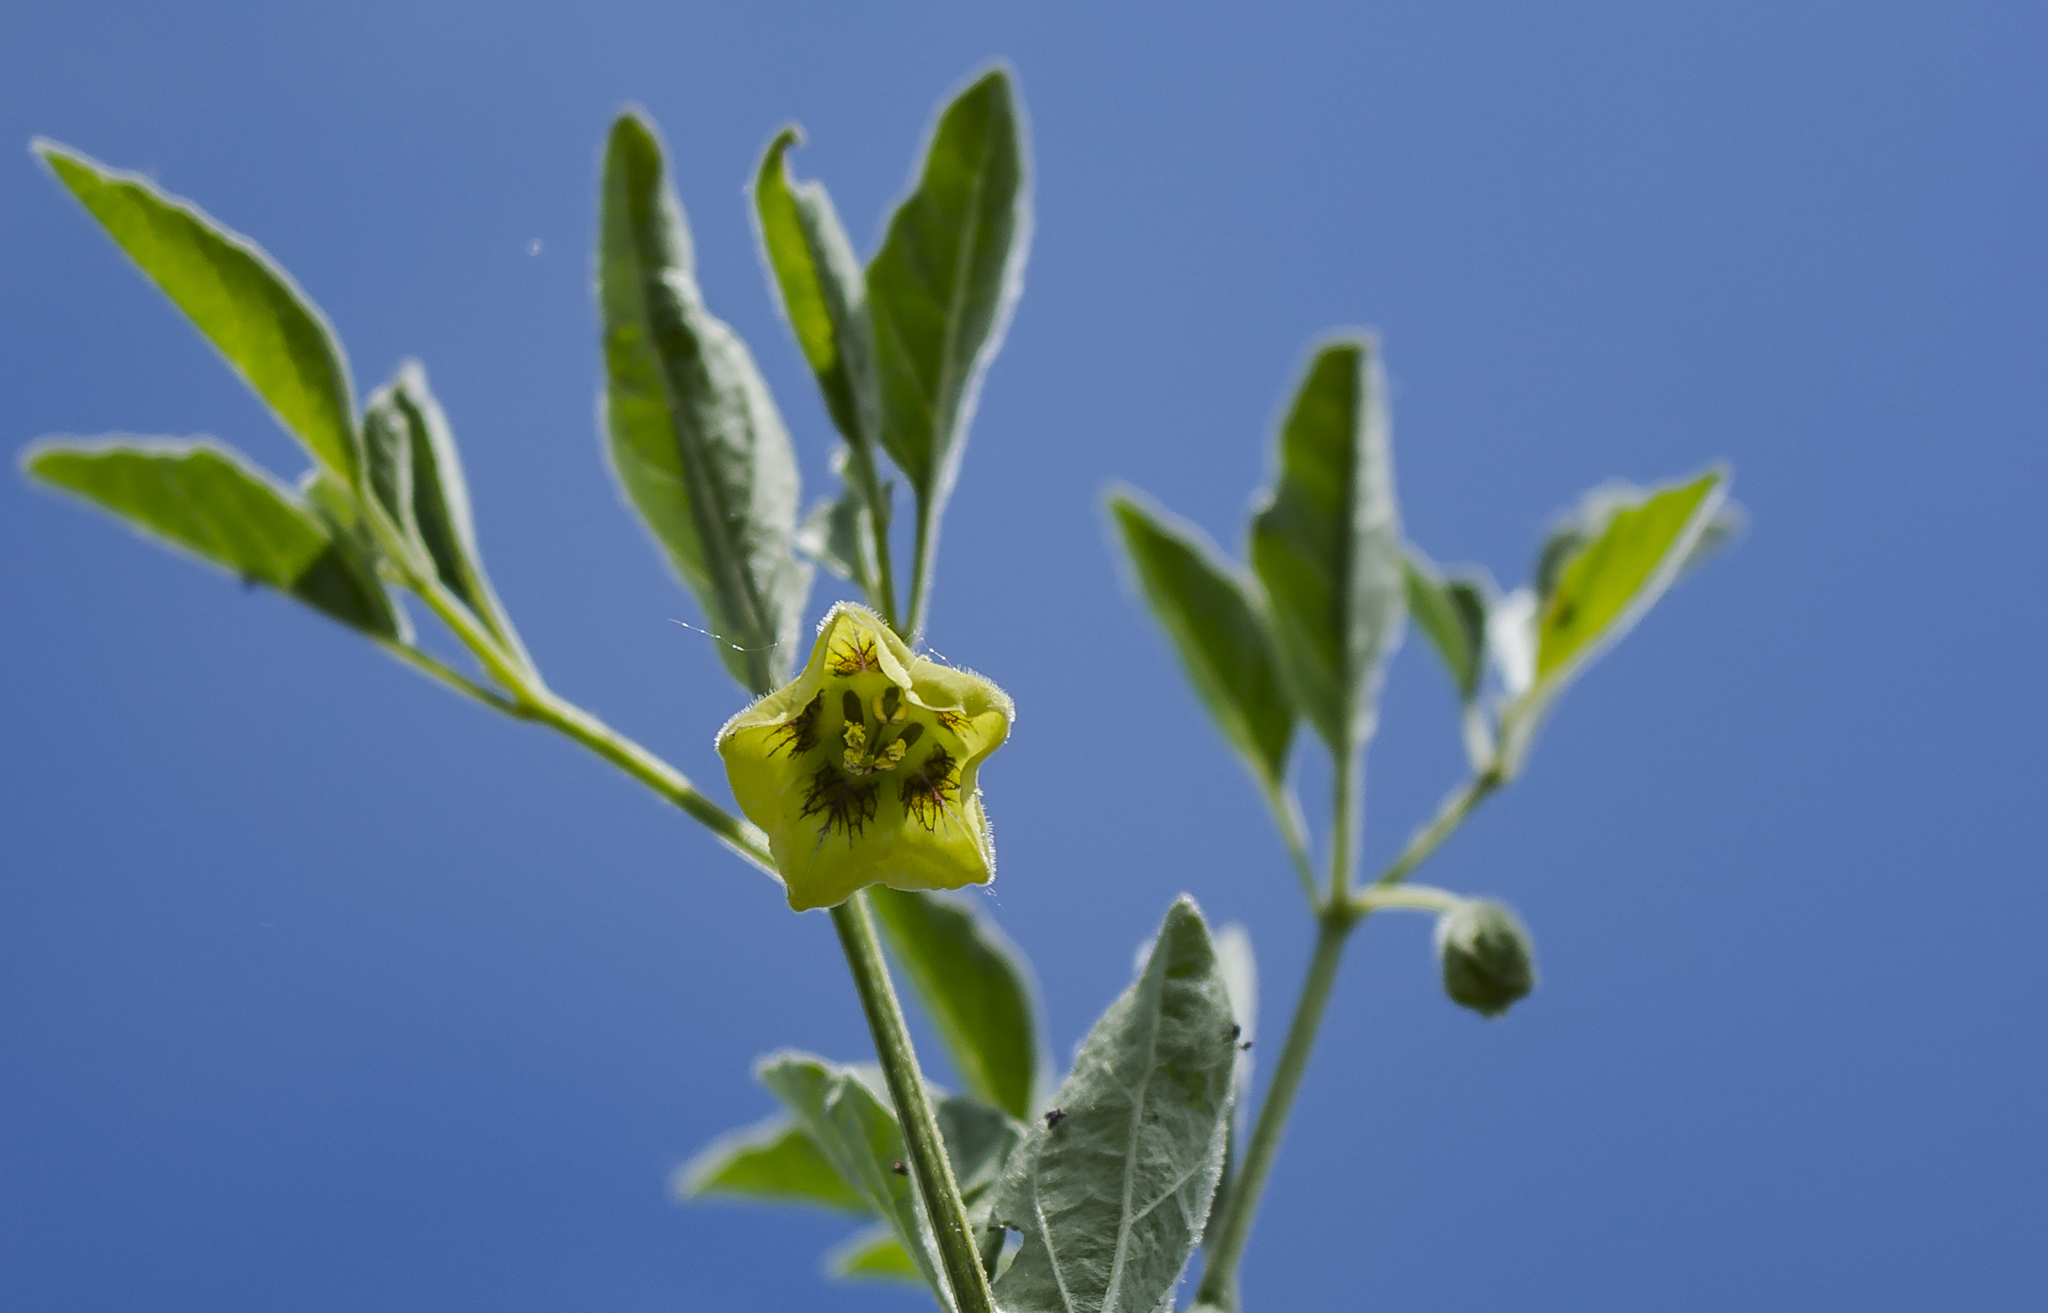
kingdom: Plantae
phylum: Tracheophyta
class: Magnoliopsida
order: Solanales
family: Solanaceae
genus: Physalis
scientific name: Physalis virginiana
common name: Virginia ground-cherry
